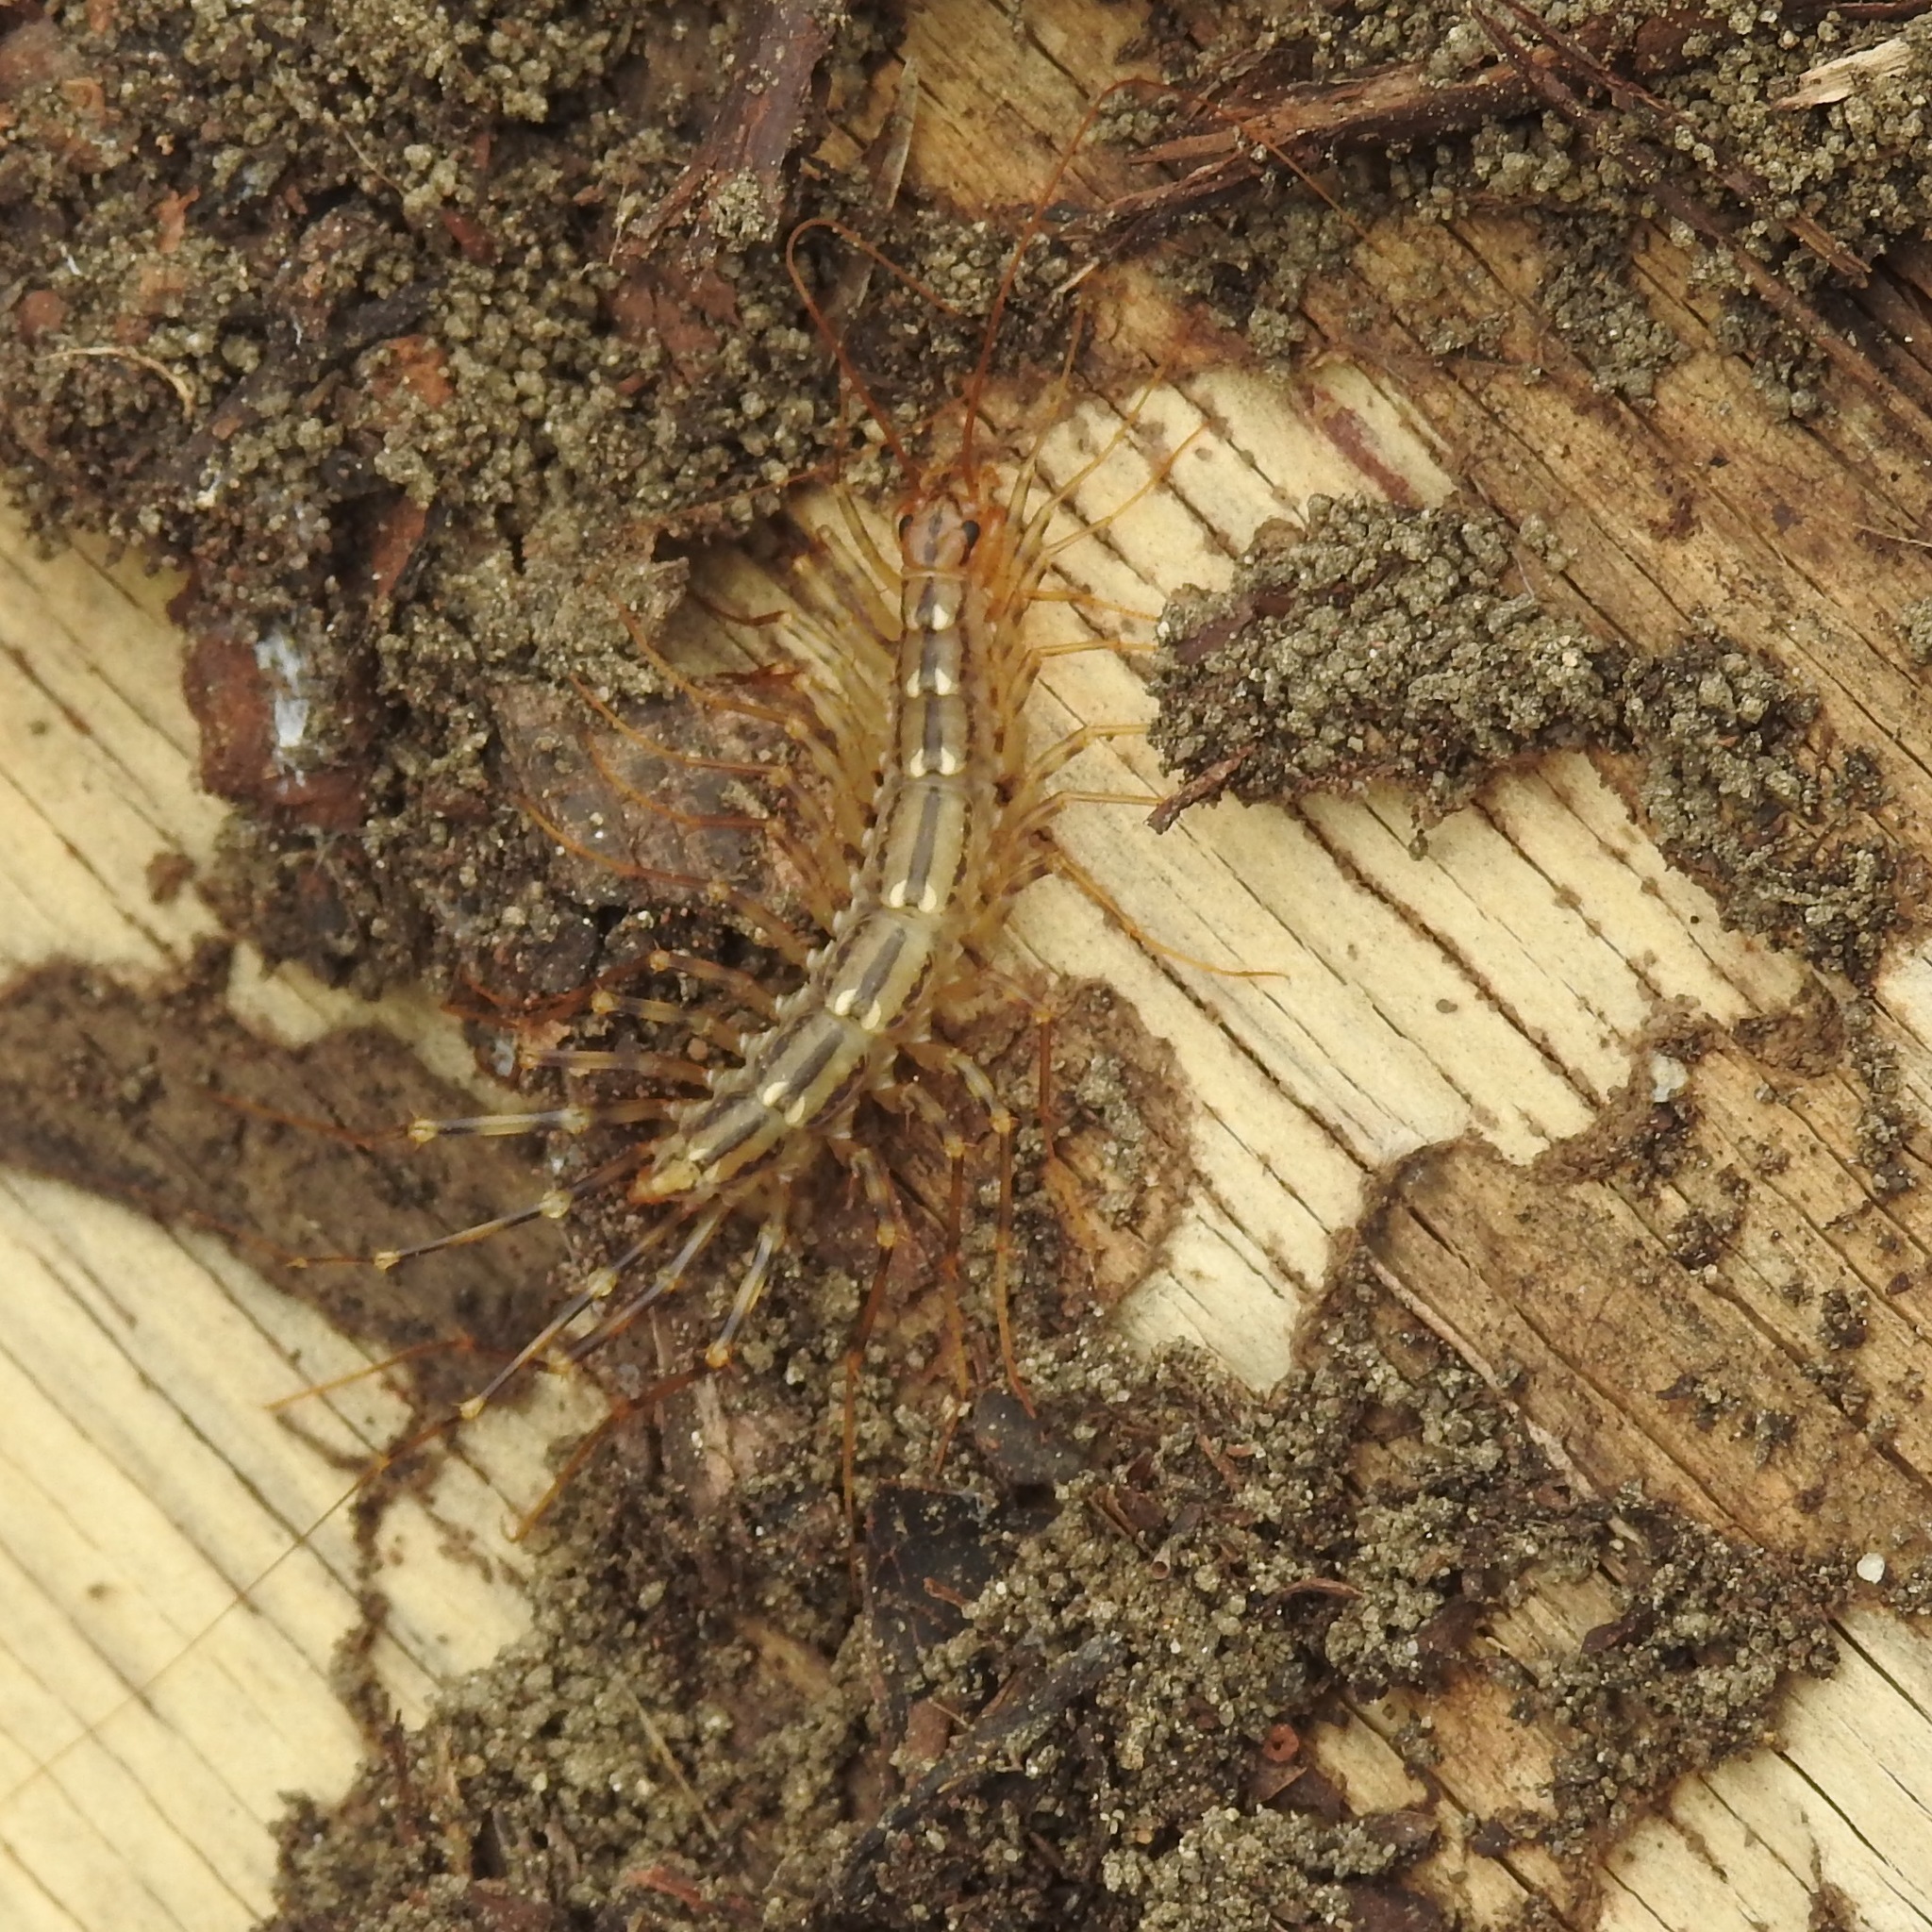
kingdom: Animalia
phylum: Arthropoda
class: Chilopoda
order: Scutigeromorpha
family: Scutigeridae
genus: Scutigera
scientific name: Scutigera coleoptrata
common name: House centipede
